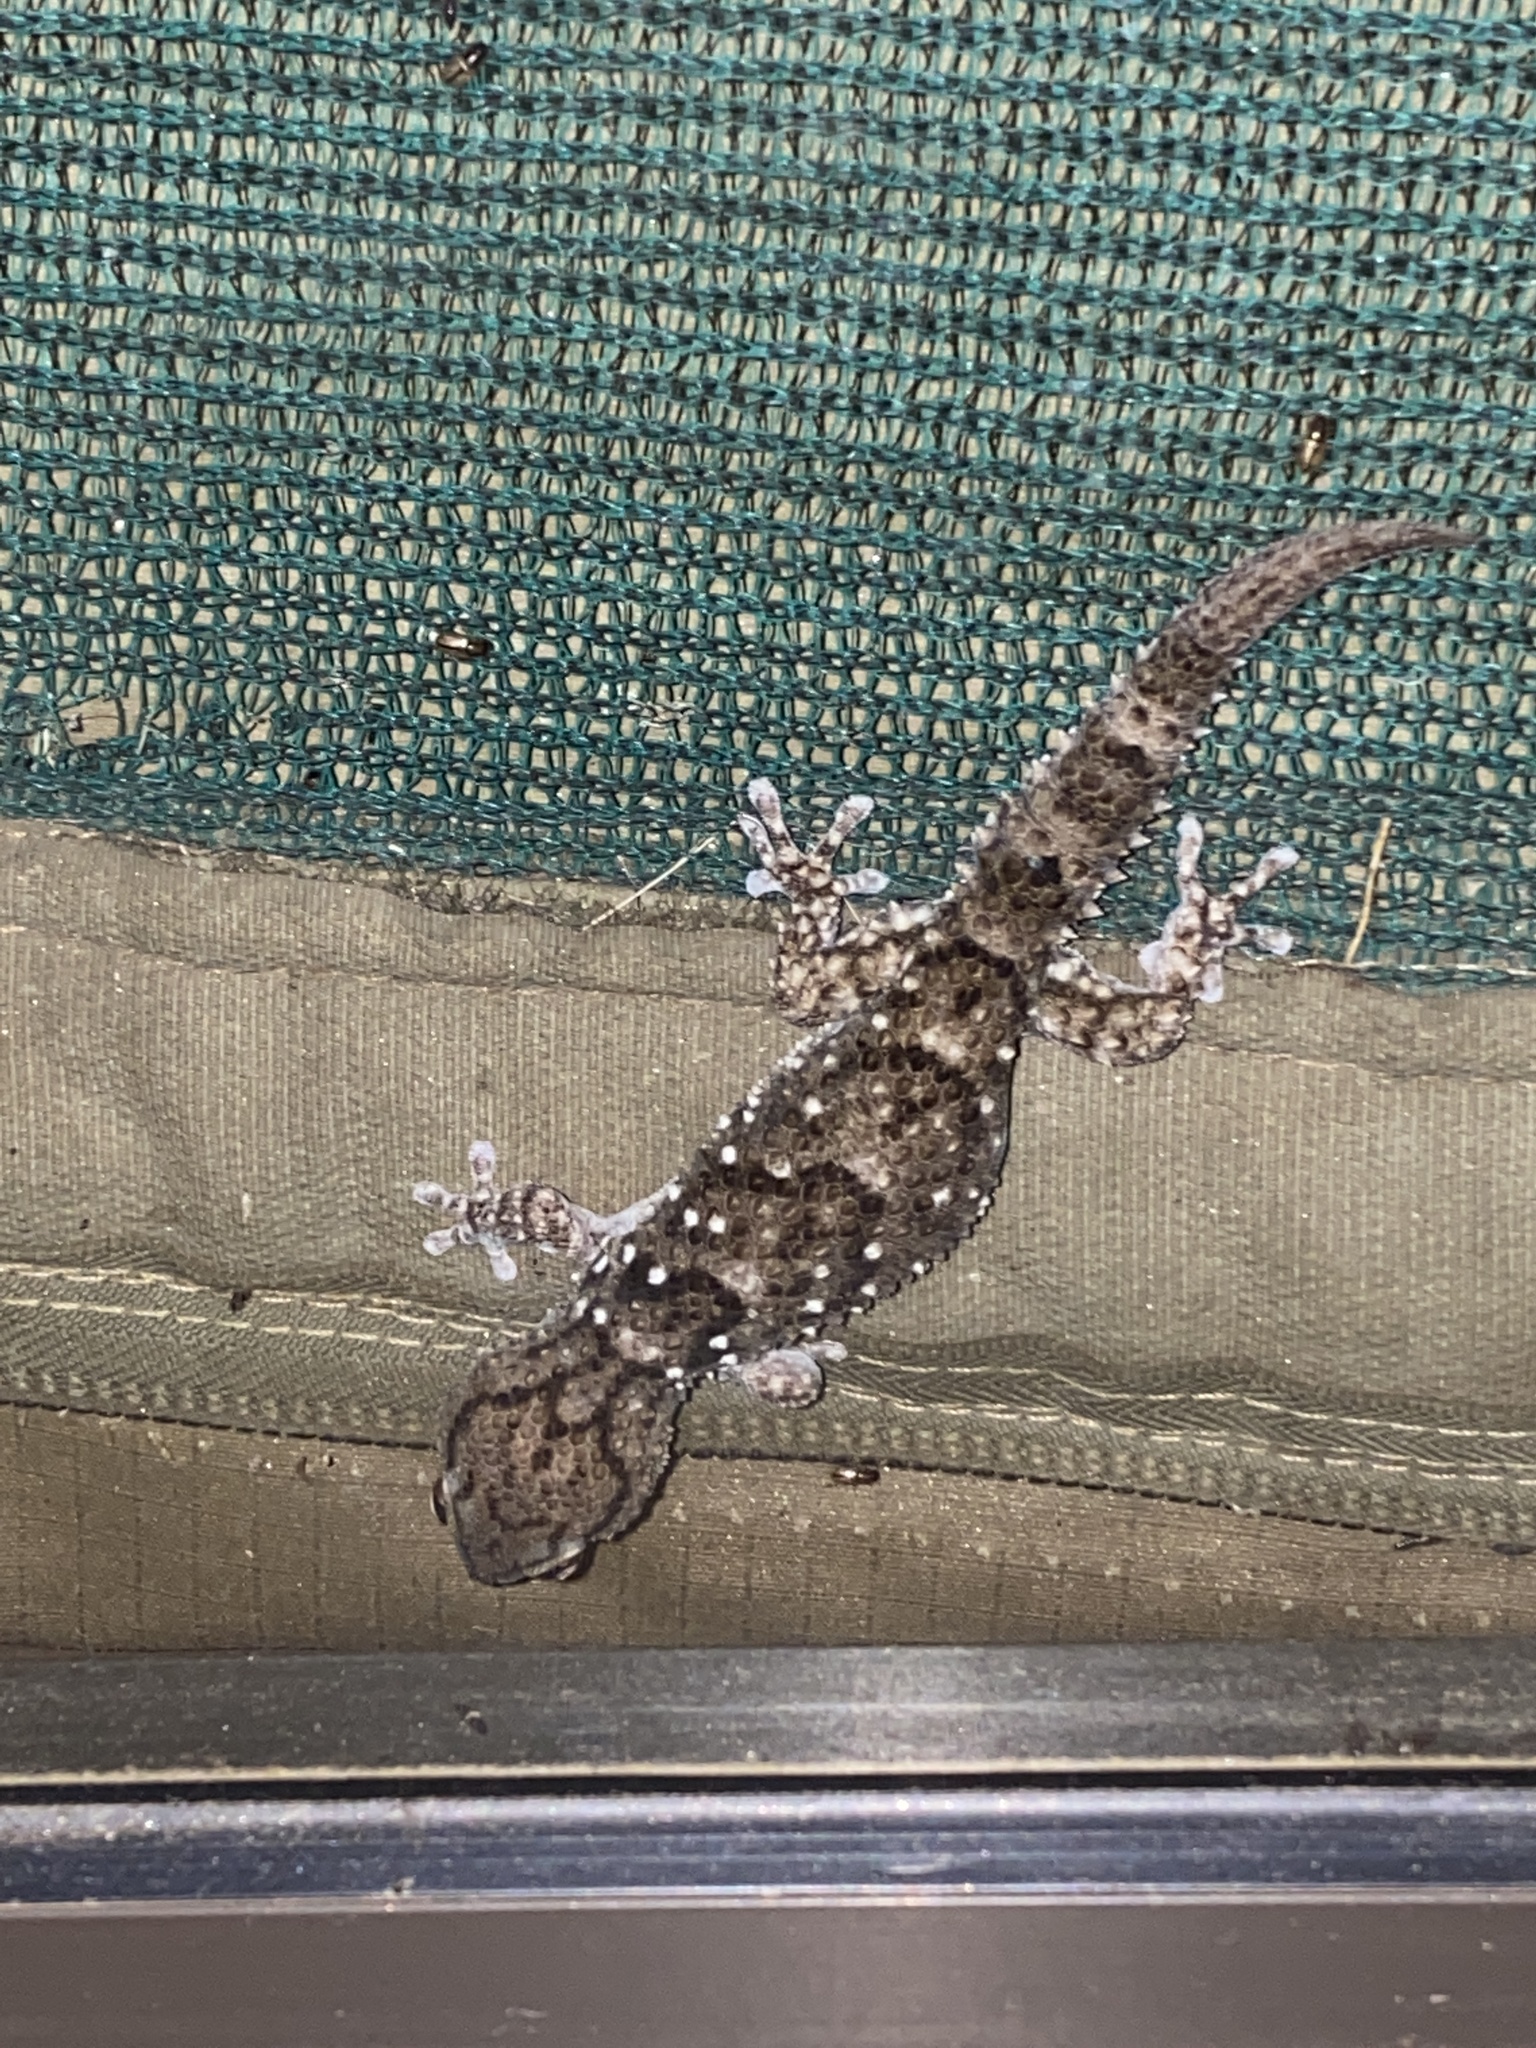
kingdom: Animalia
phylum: Chordata
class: Squamata
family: Gekkonidae
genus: Chondrodactylus
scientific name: Chondrodactylus laevigatus
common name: Fischer's thick-toed gecko
